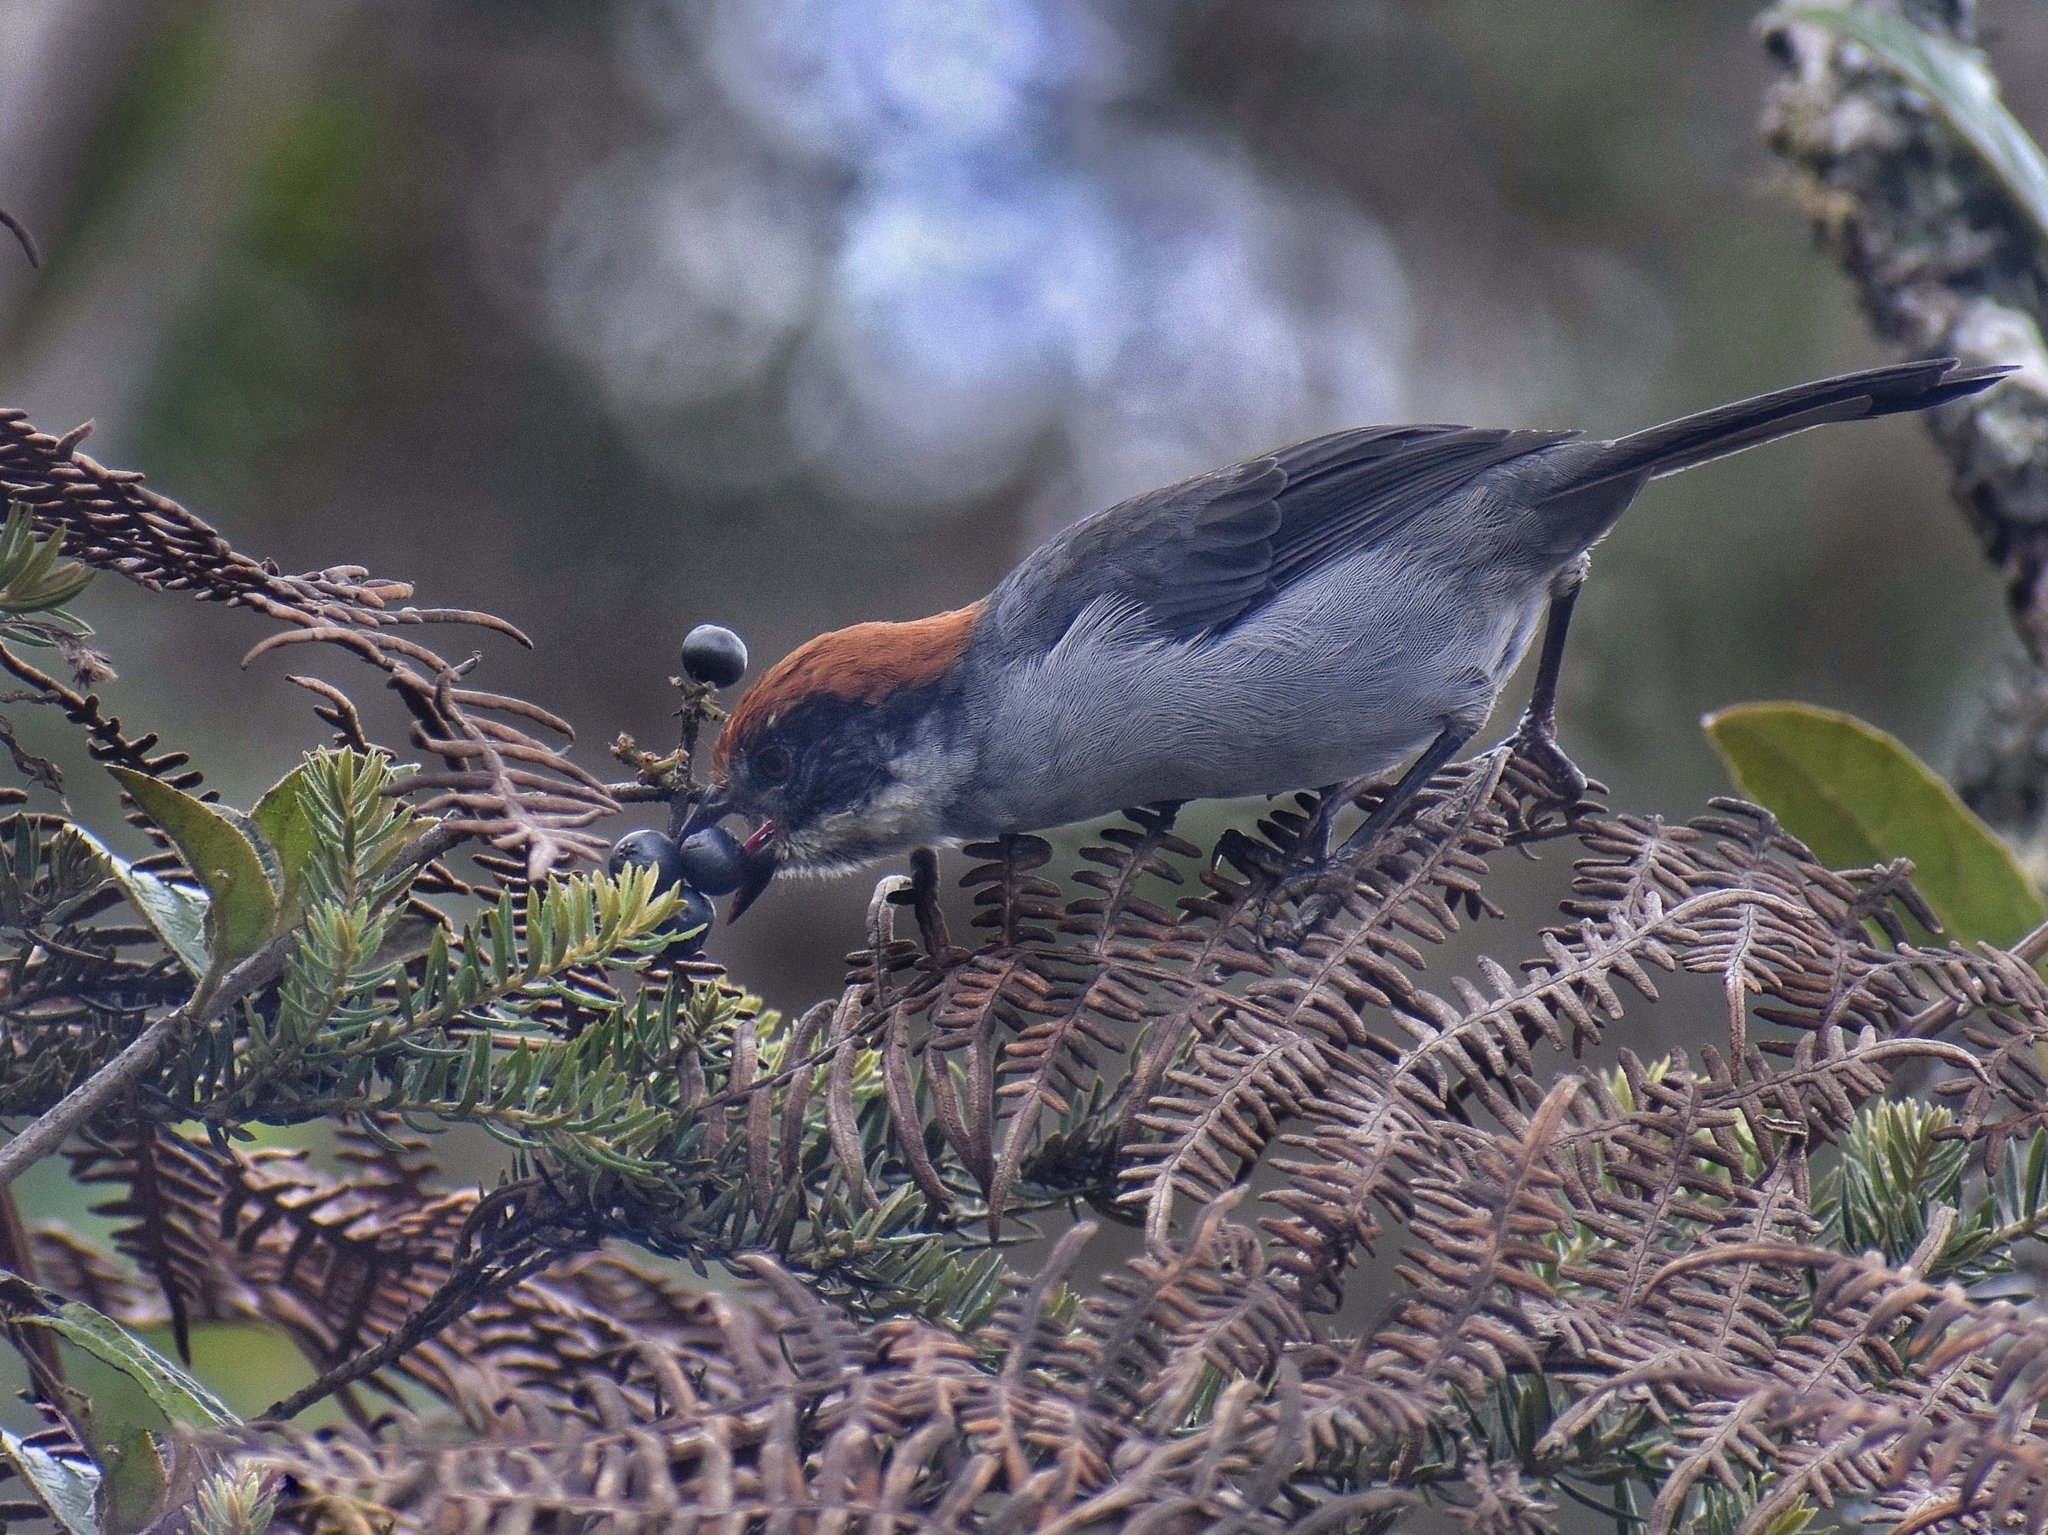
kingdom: Animalia
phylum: Chordata
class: Aves
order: Passeriformes
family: Passerellidae
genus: Atlapetes
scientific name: Atlapetes blancae
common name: Antioquia brush-finch
